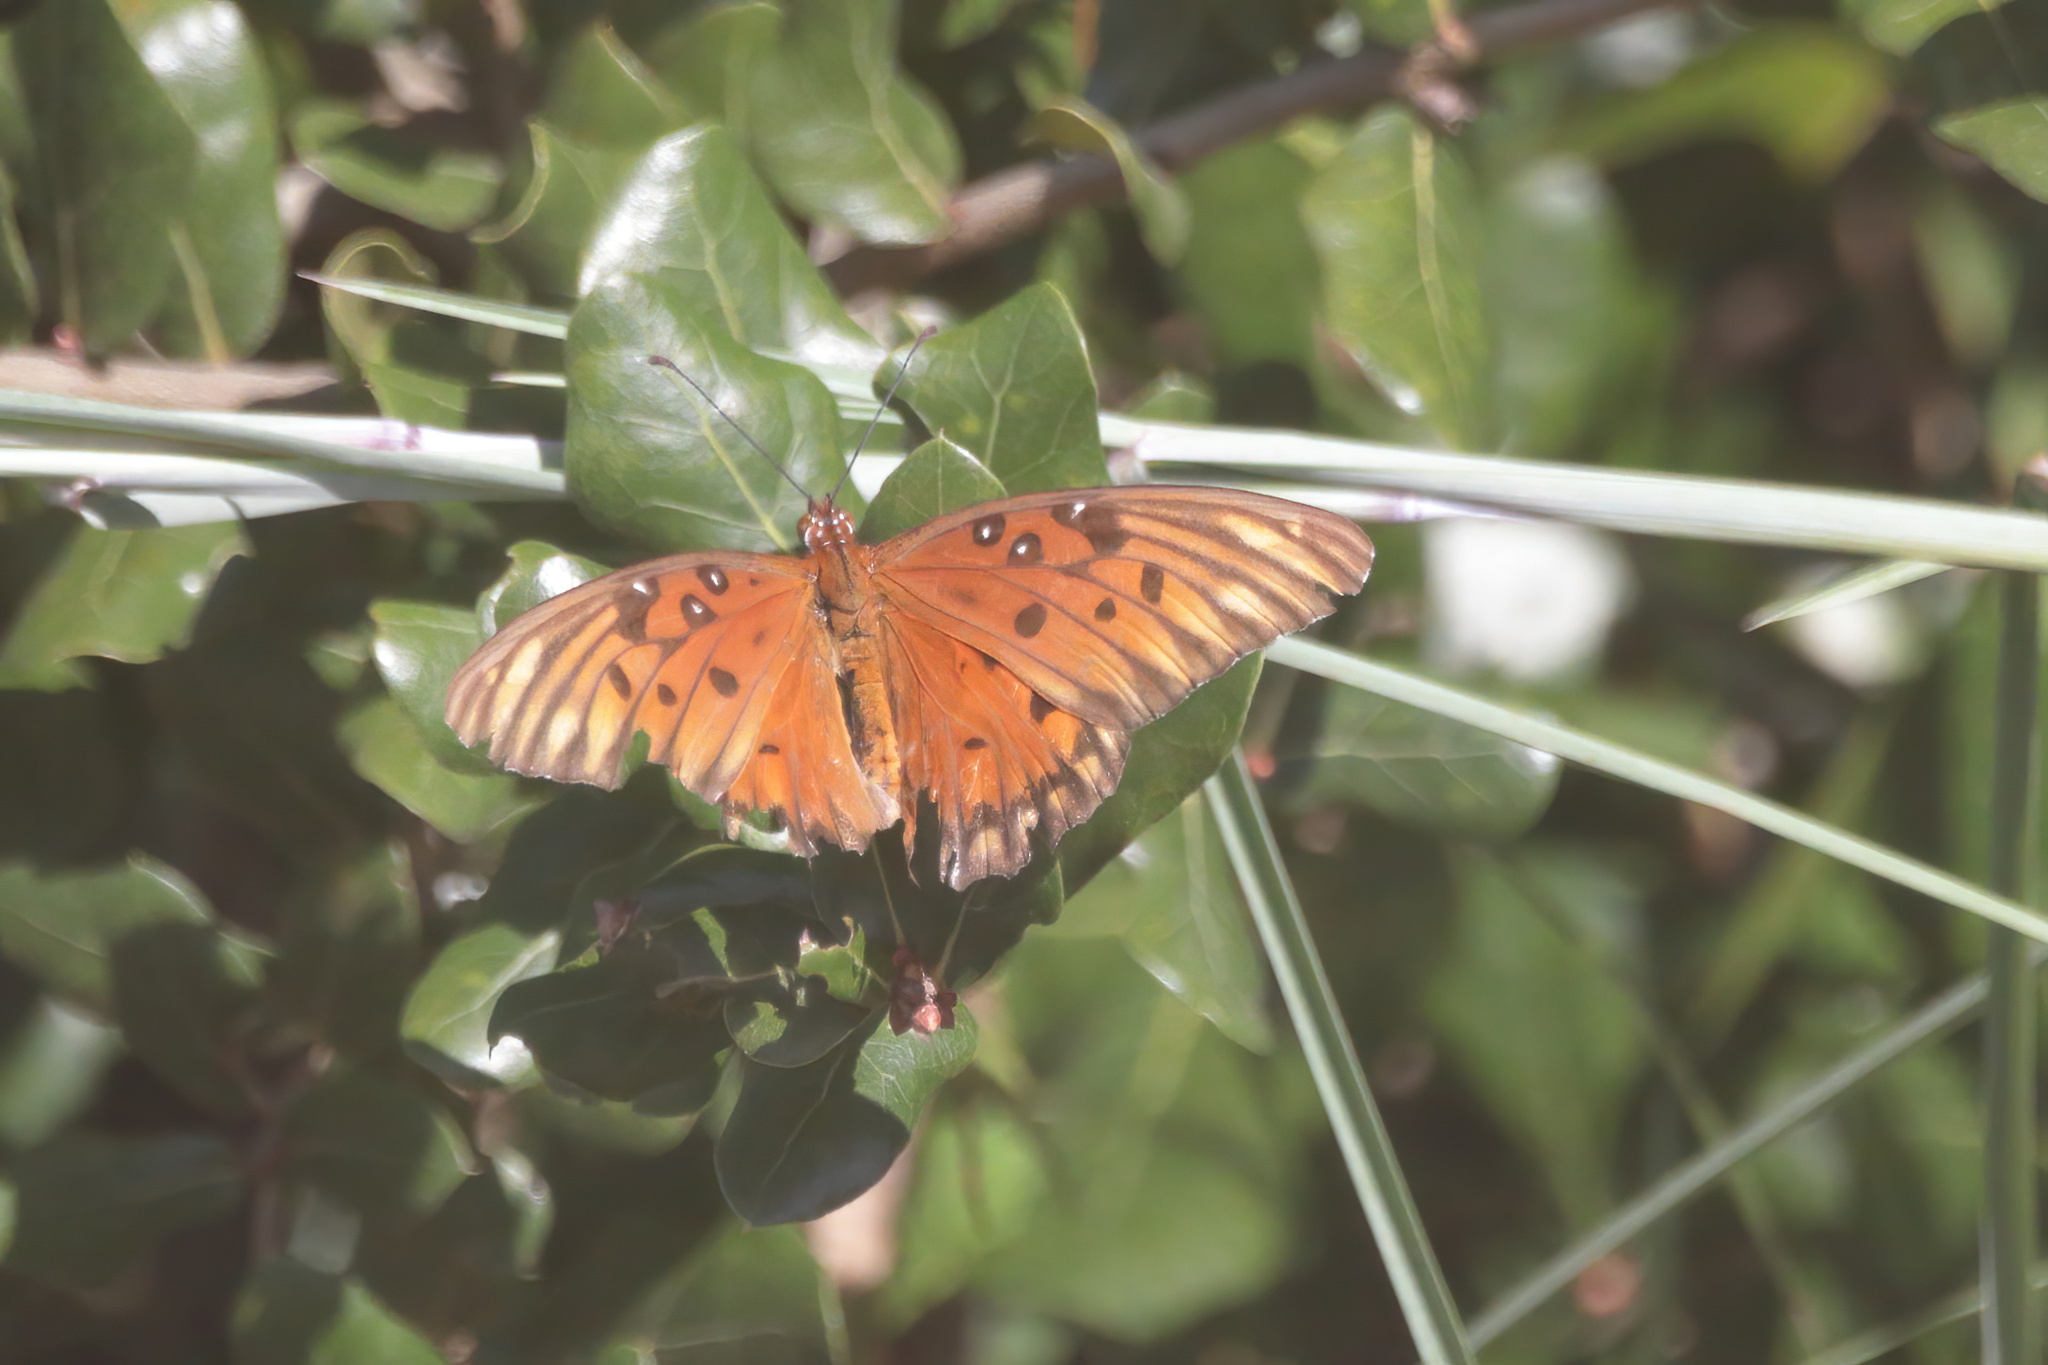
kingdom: Animalia
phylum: Arthropoda
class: Insecta
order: Lepidoptera
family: Nymphalidae
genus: Dione
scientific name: Dione vanillae
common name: Gulf fritillary
